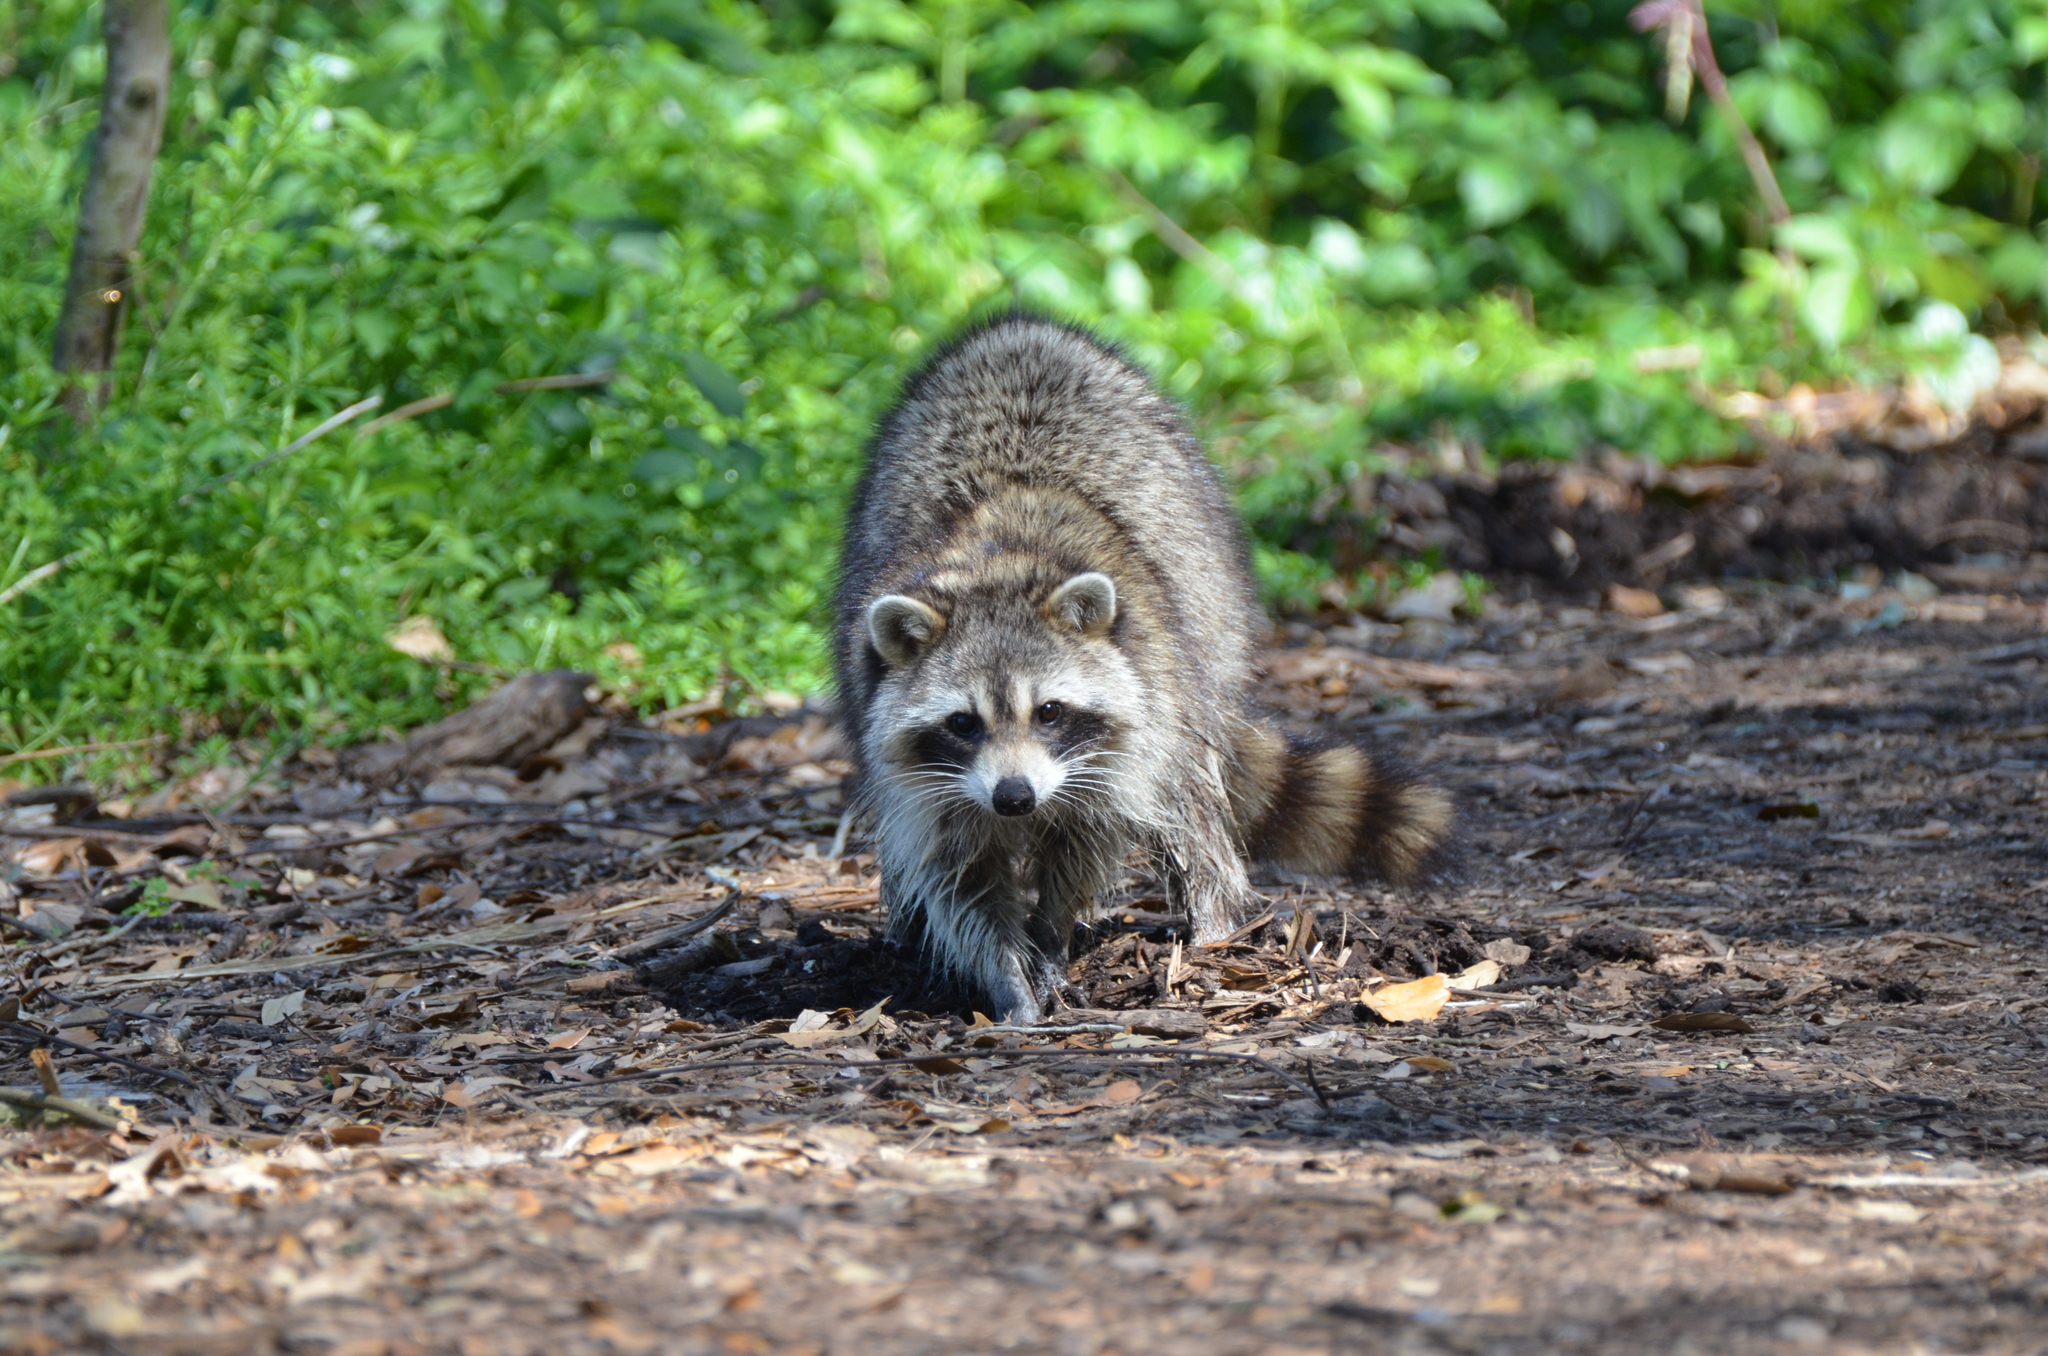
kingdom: Animalia
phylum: Chordata
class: Mammalia
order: Carnivora
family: Procyonidae
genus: Procyon
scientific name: Procyon lotor
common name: Raccoon
